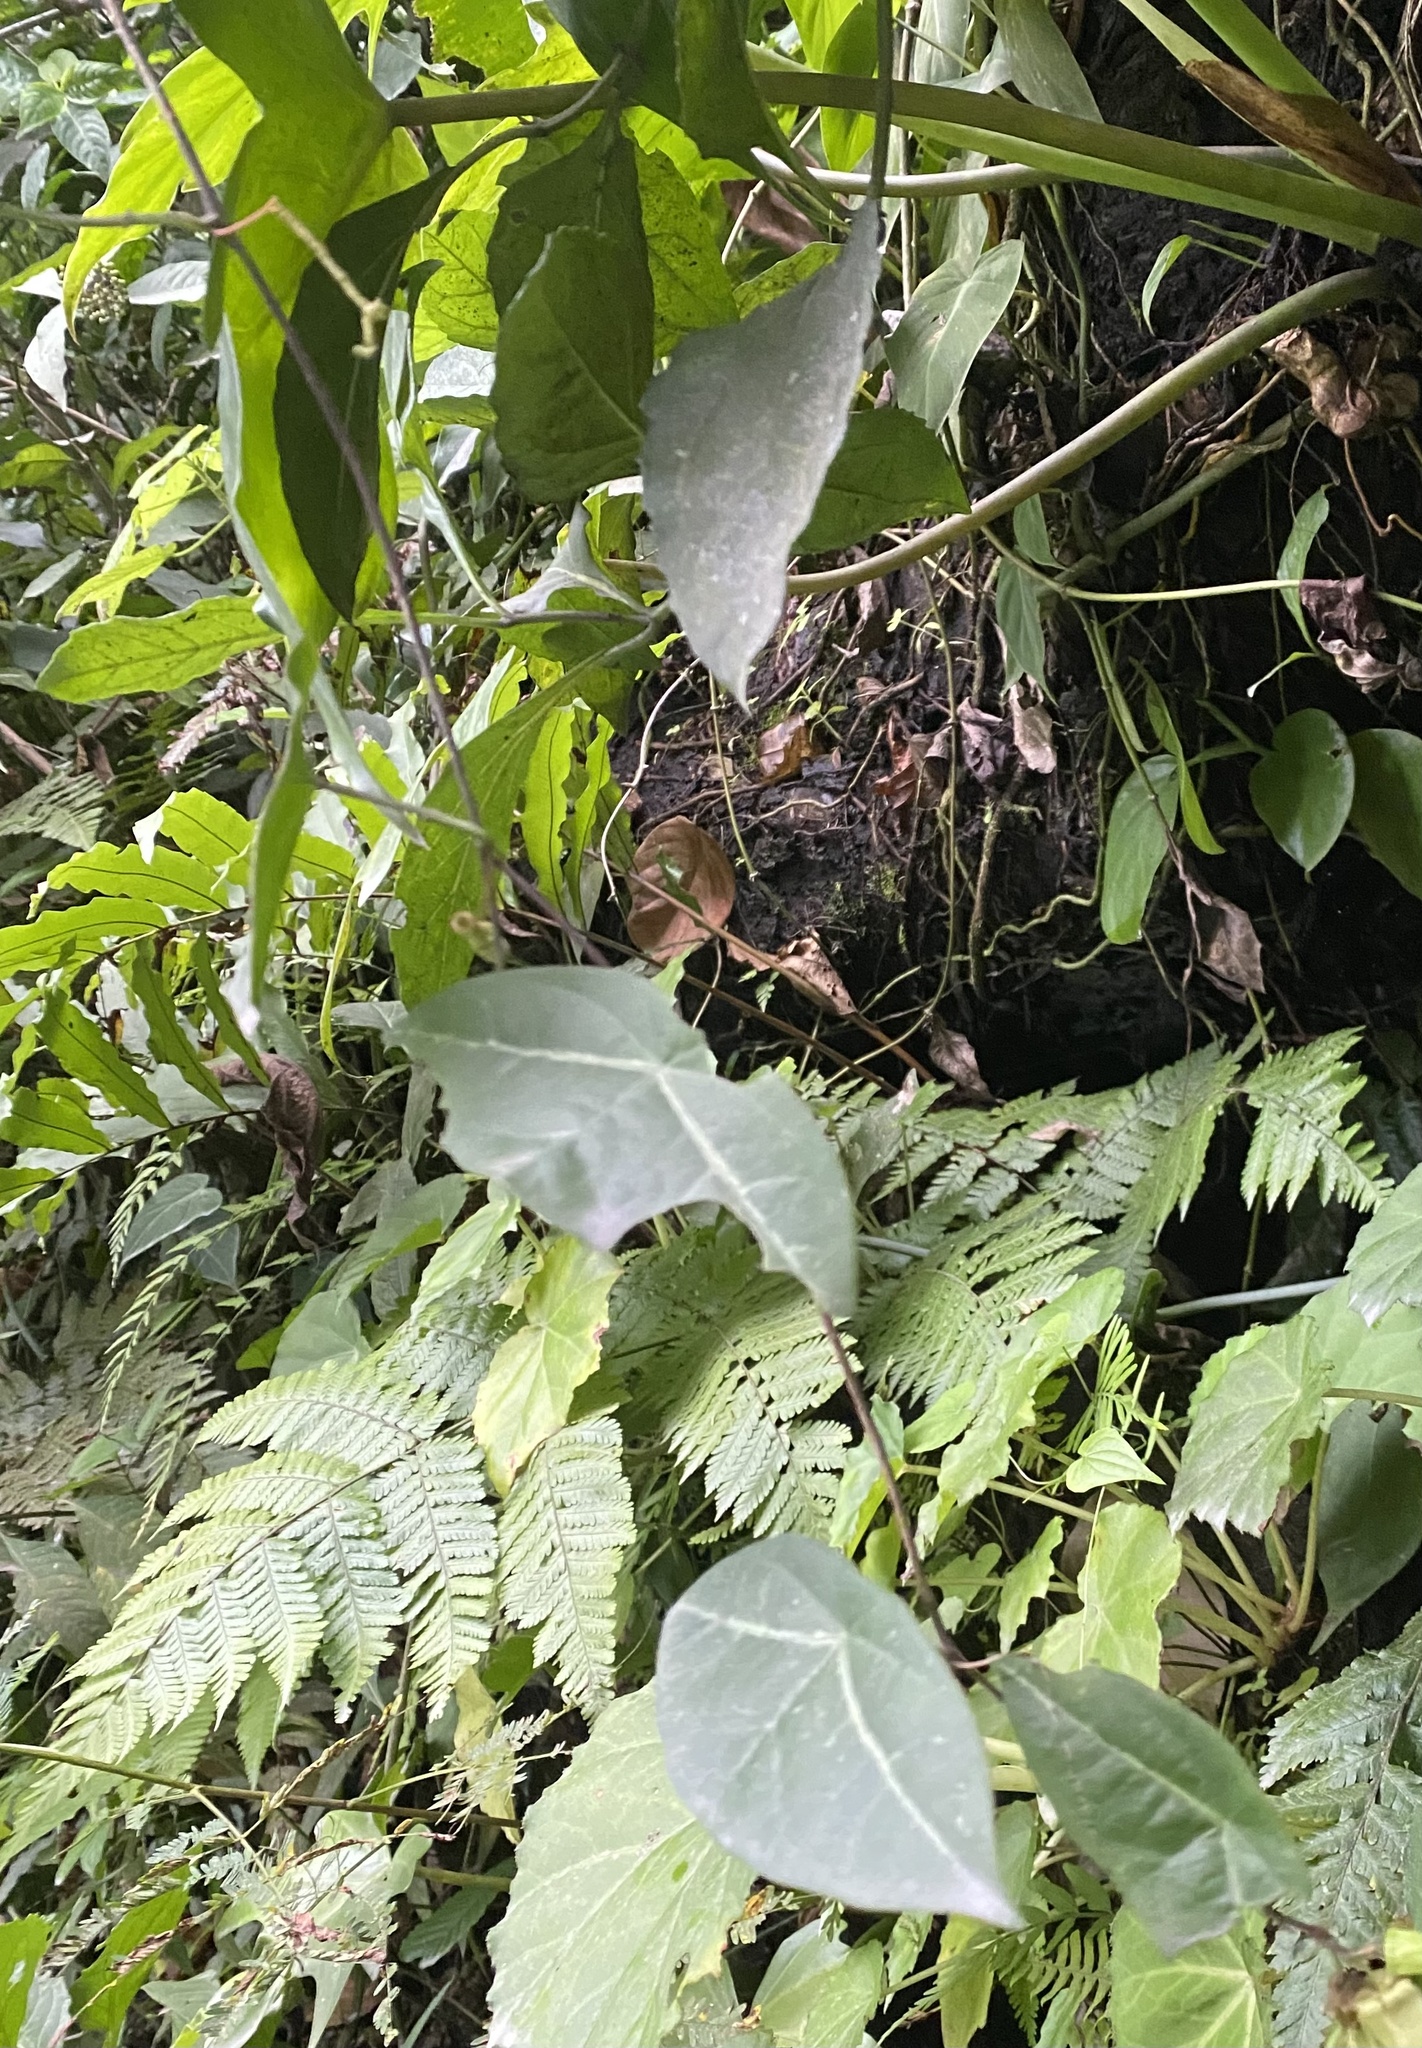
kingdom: Plantae
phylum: Tracheophyta
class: Magnoliopsida
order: Malpighiales
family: Passifloraceae
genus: Passiflora
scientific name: Passiflora sexocellata
